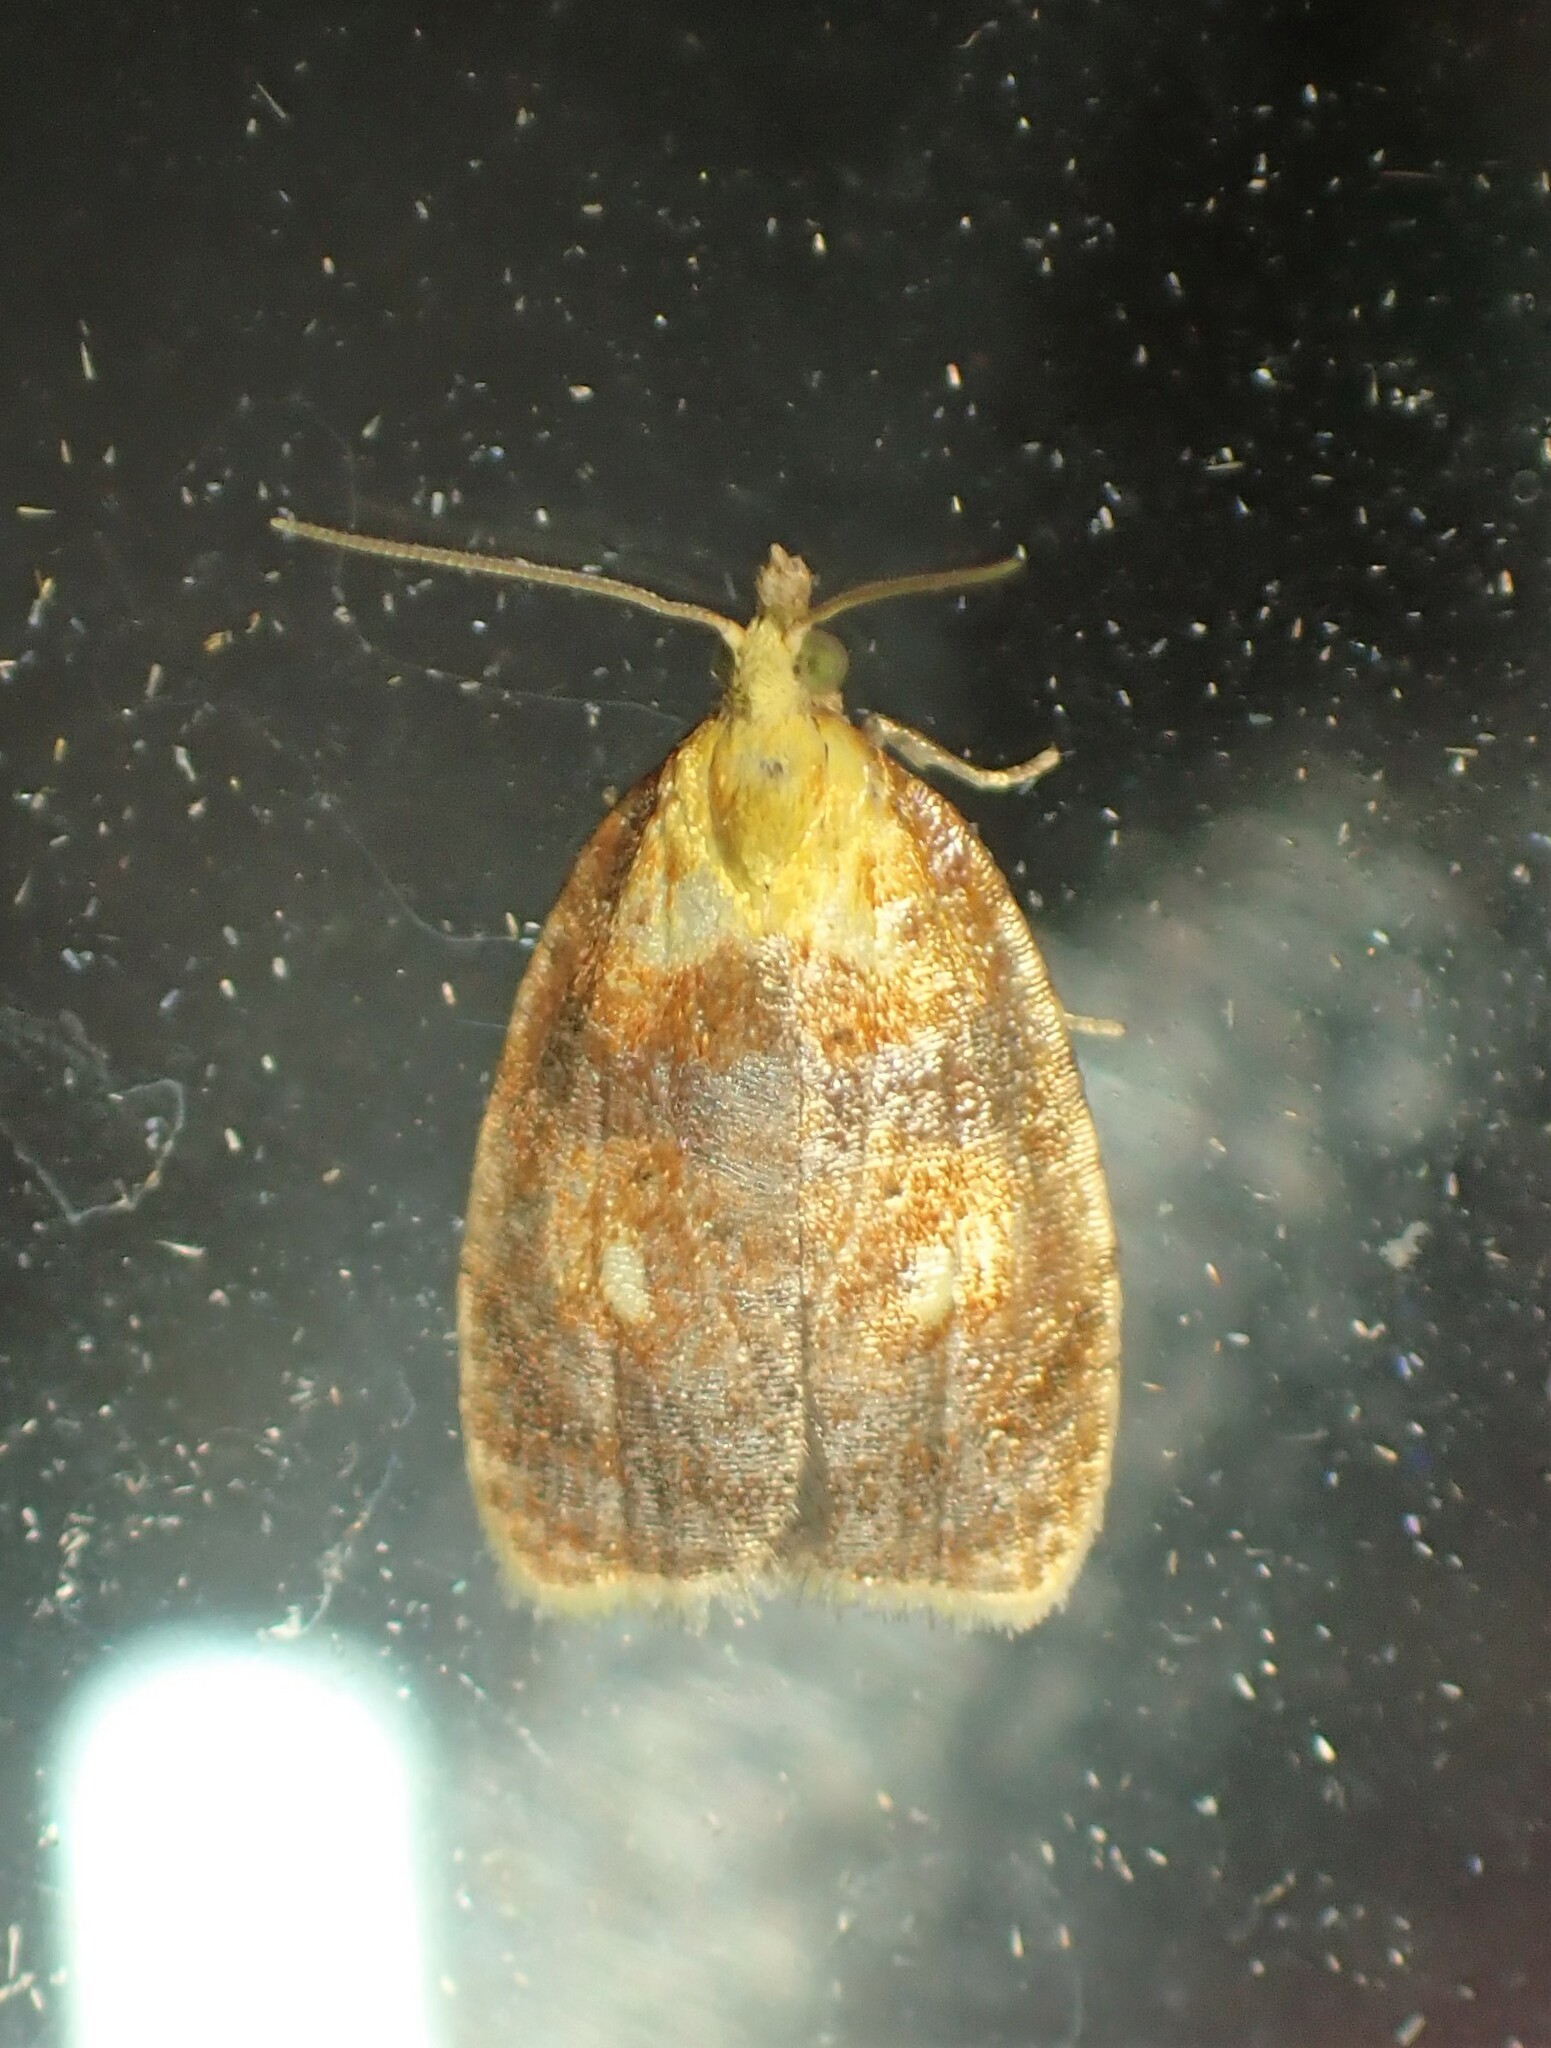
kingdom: Animalia
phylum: Arthropoda
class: Insecta
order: Lepidoptera
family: Tortricidae
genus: Acleris
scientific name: Acleris curvalana
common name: Blueberry leaftier moth
